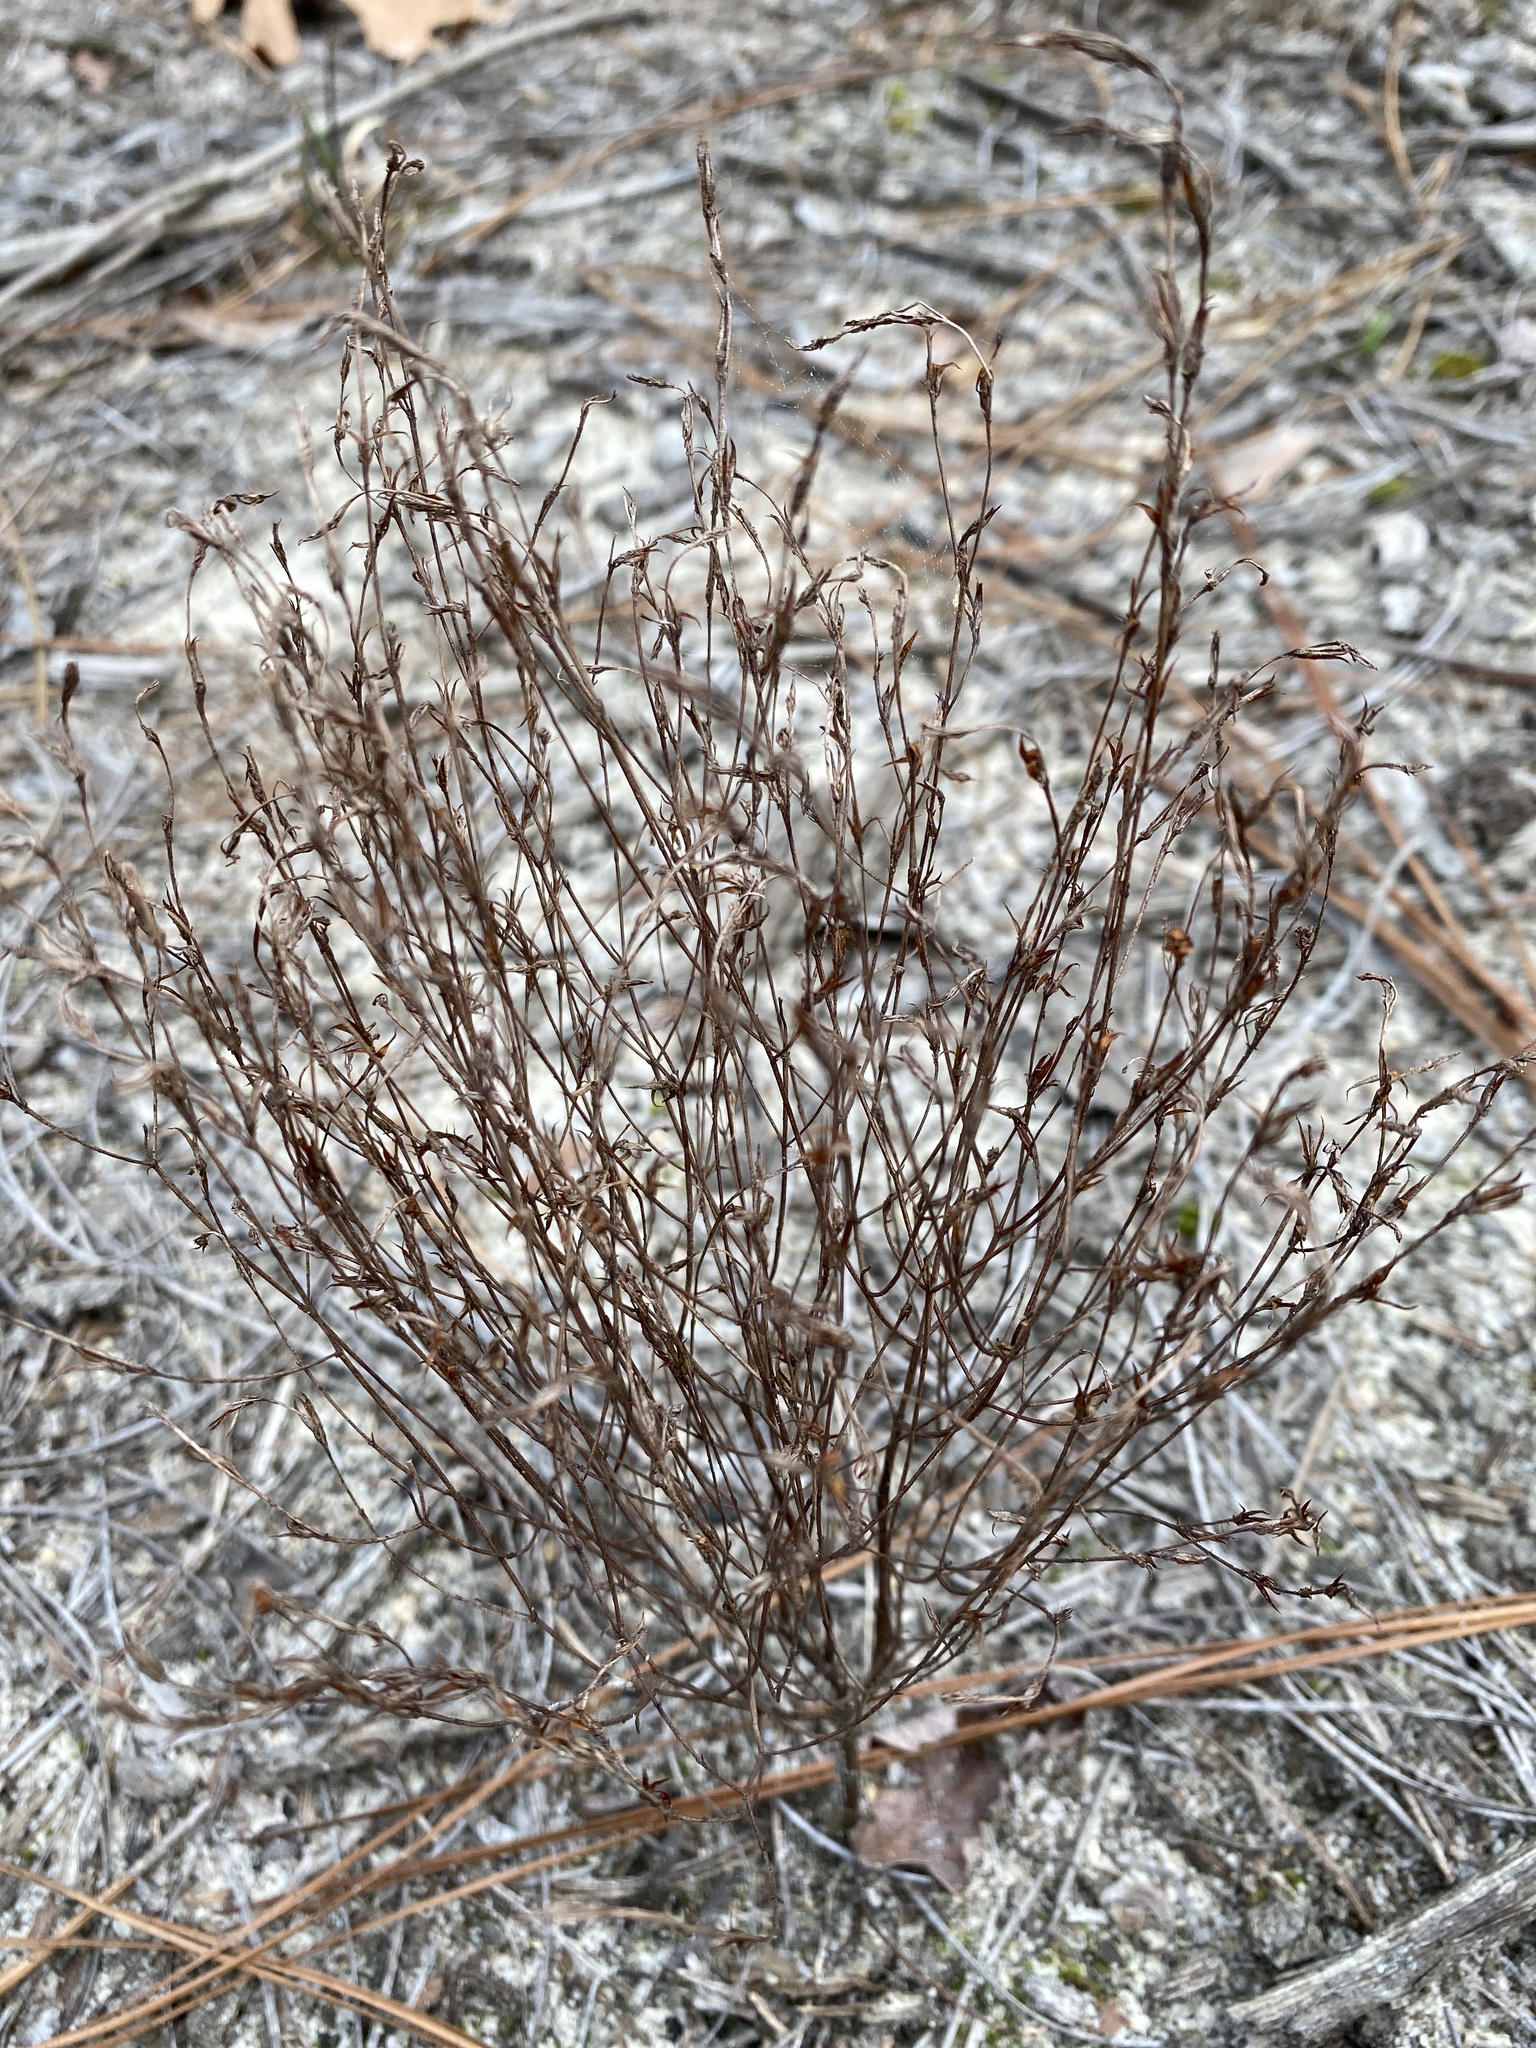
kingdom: Plantae
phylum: Tracheophyta
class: Magnoliopsida
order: Malpighiales
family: Hypericaceae
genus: Hypericum
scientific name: Hypericum gentianoides
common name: Gentian-leaved st. john's-wort
